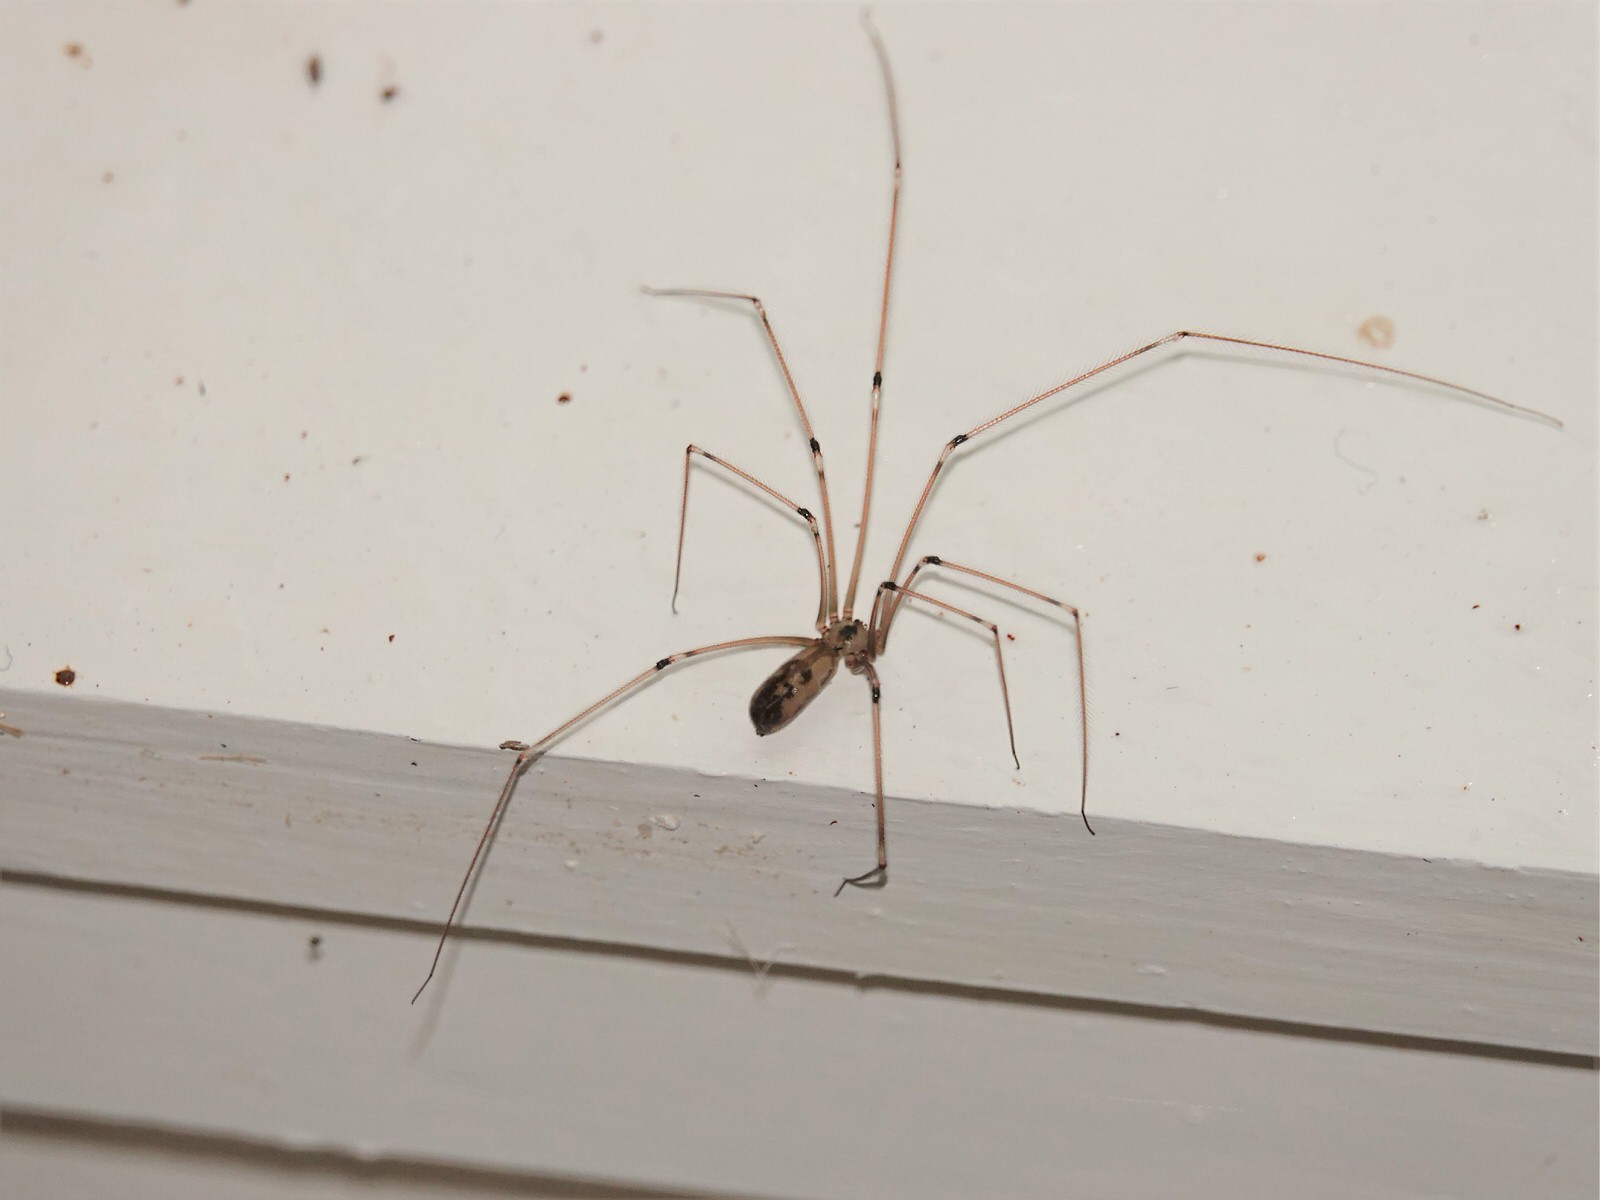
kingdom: Animalia
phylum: Arthropoda
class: Arachnida
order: Araneae
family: Pholcidae
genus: Pholcus
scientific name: Pholcus phalangioides
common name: Longbodied cellar spider
